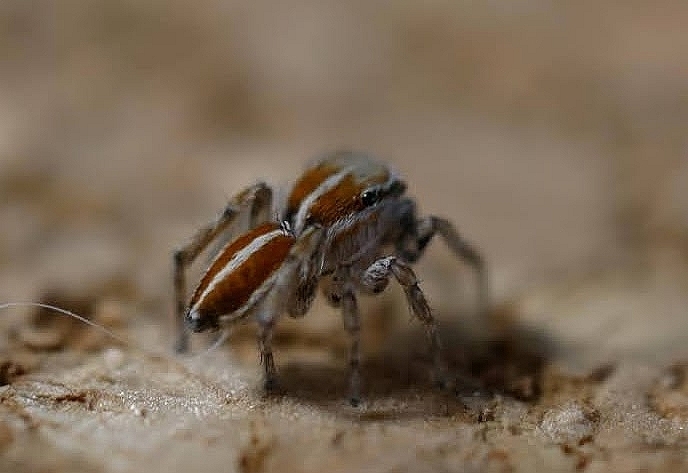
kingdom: Animalia
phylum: Arthropoda
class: Arachnida
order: Araneae
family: Salticidae
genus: Attinella
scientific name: Attinella dorsata
